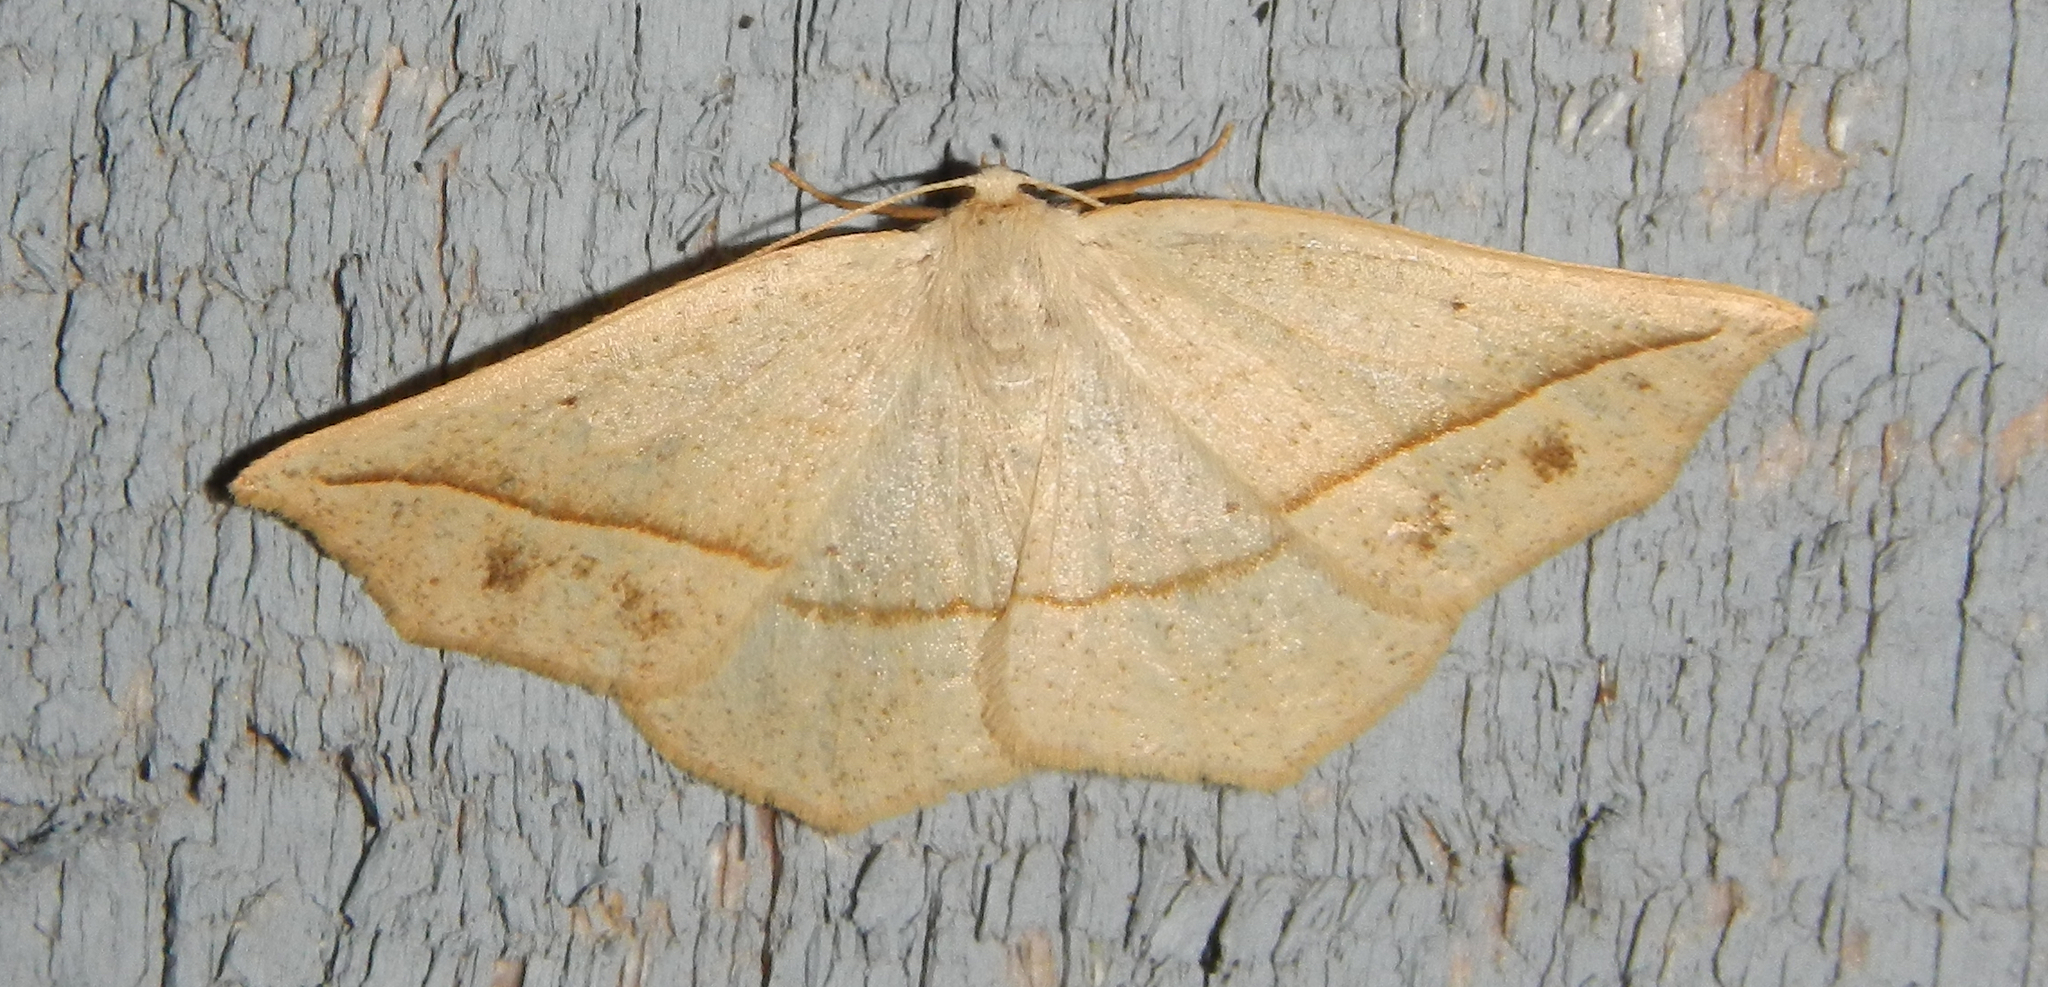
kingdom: Animalia
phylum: Arthropoda
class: Insecta
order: Lepidoptera
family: Geometridae
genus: Eusarca
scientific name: Eusarca confusaria
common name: Confused eusarca
